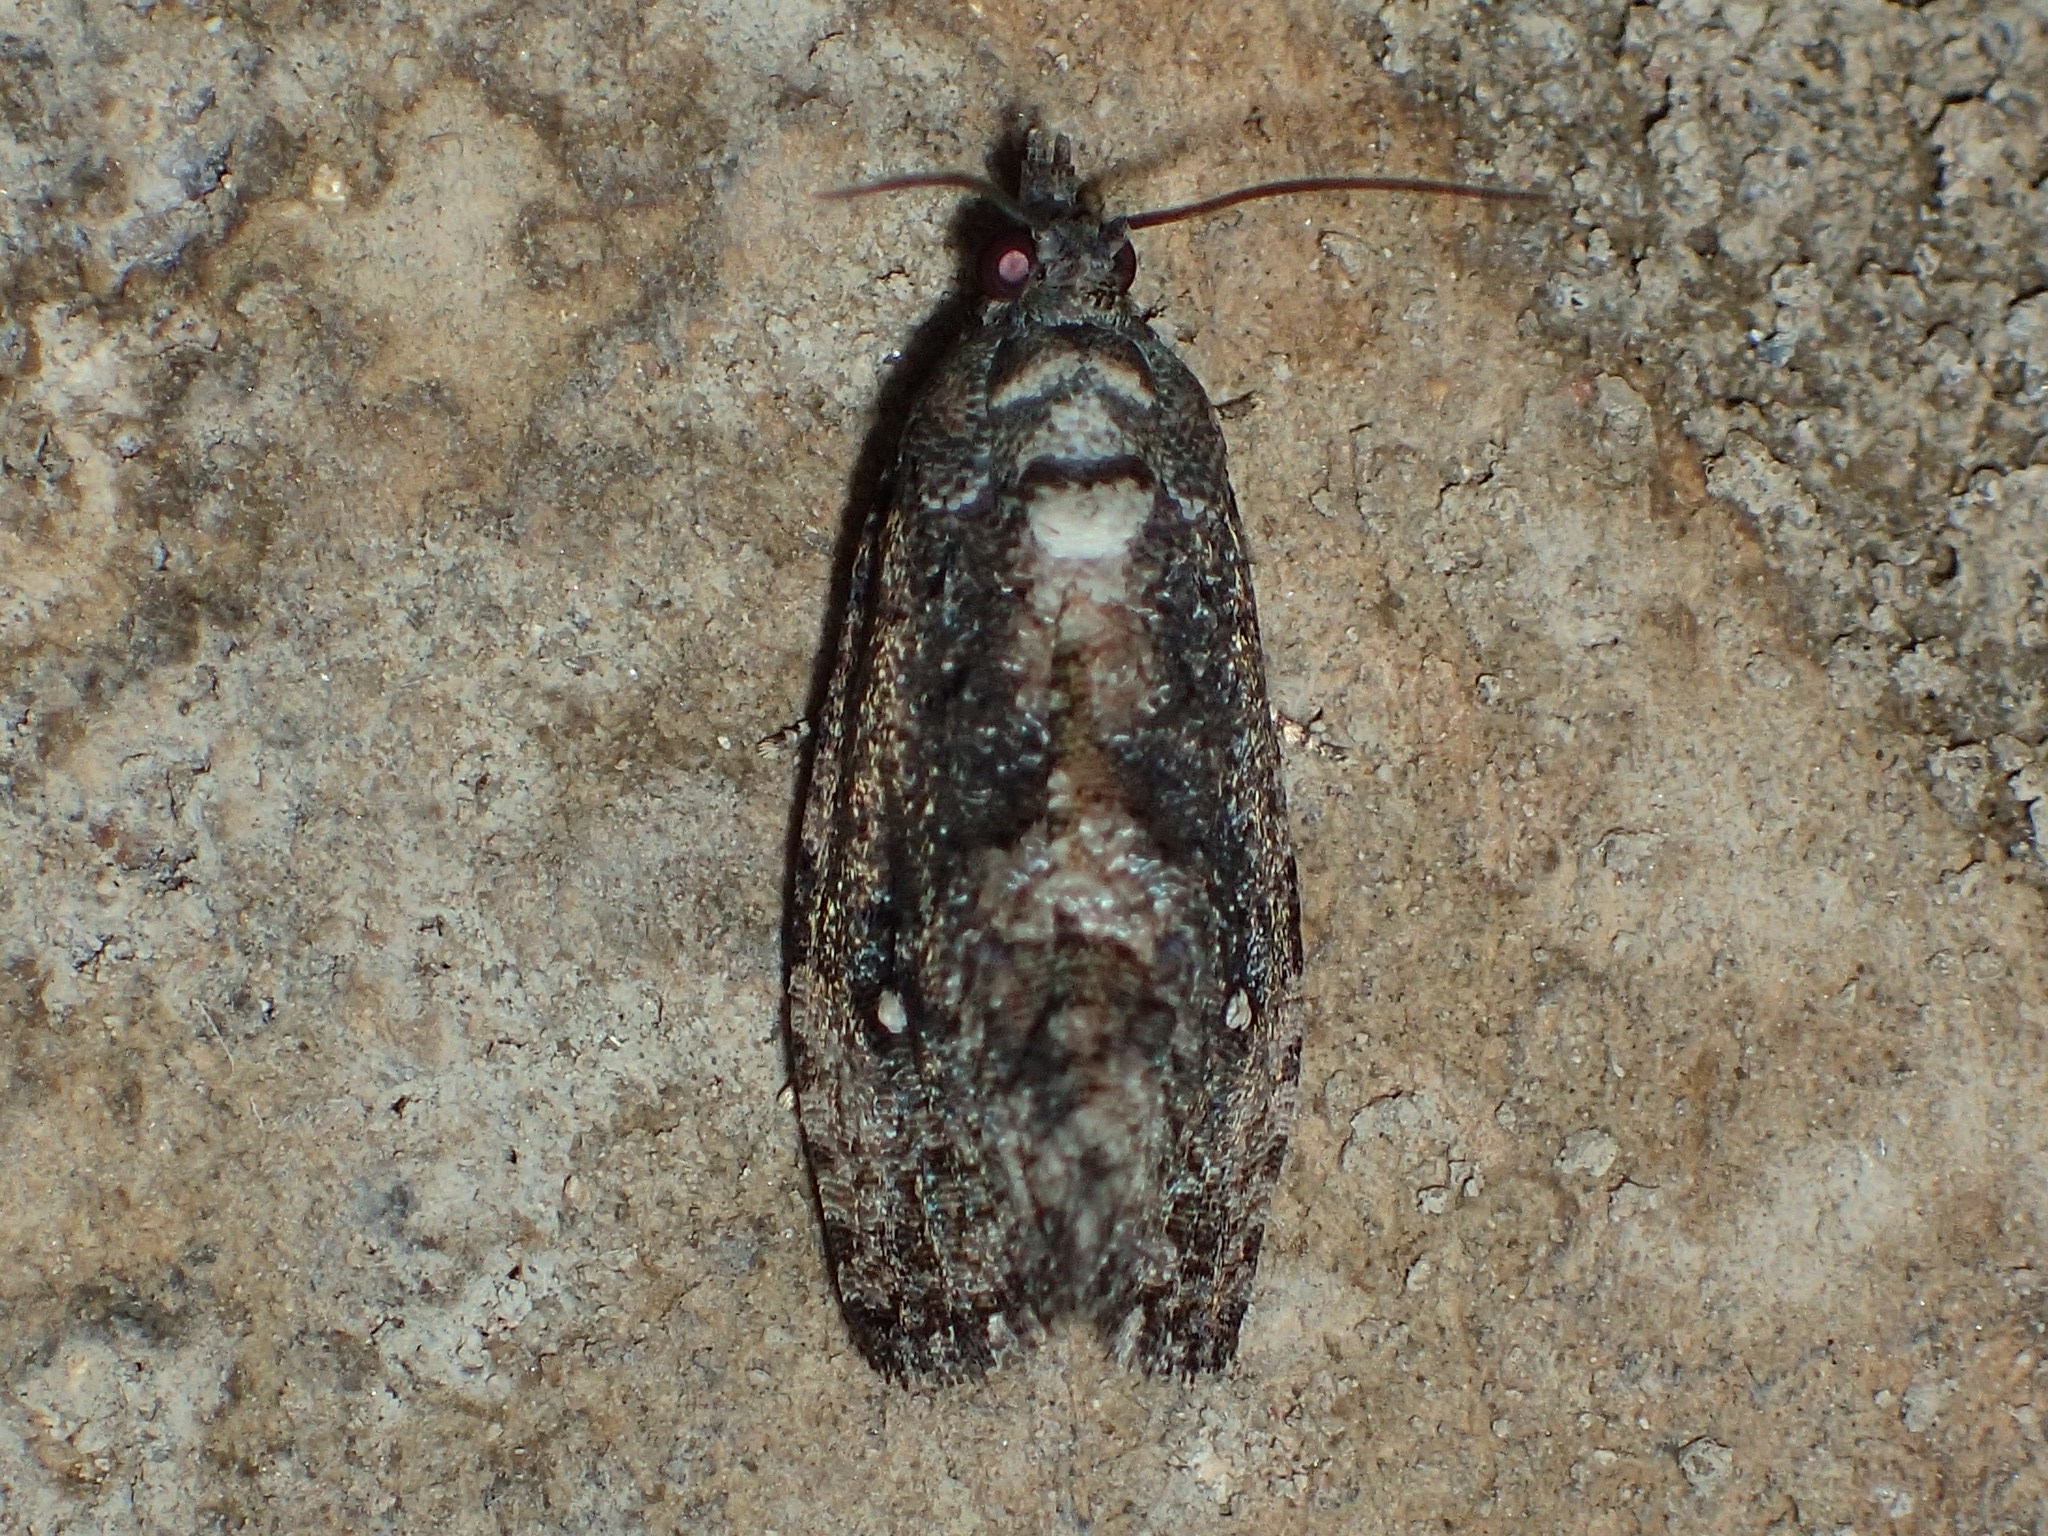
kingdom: Animalia
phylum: Arthropoda
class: Insecta
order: Lepidoptera
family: Tortricidae
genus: Gymnandrosoma
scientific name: Gymnandrosoma punctidiscanum
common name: Dotted ecdytolopha moth
